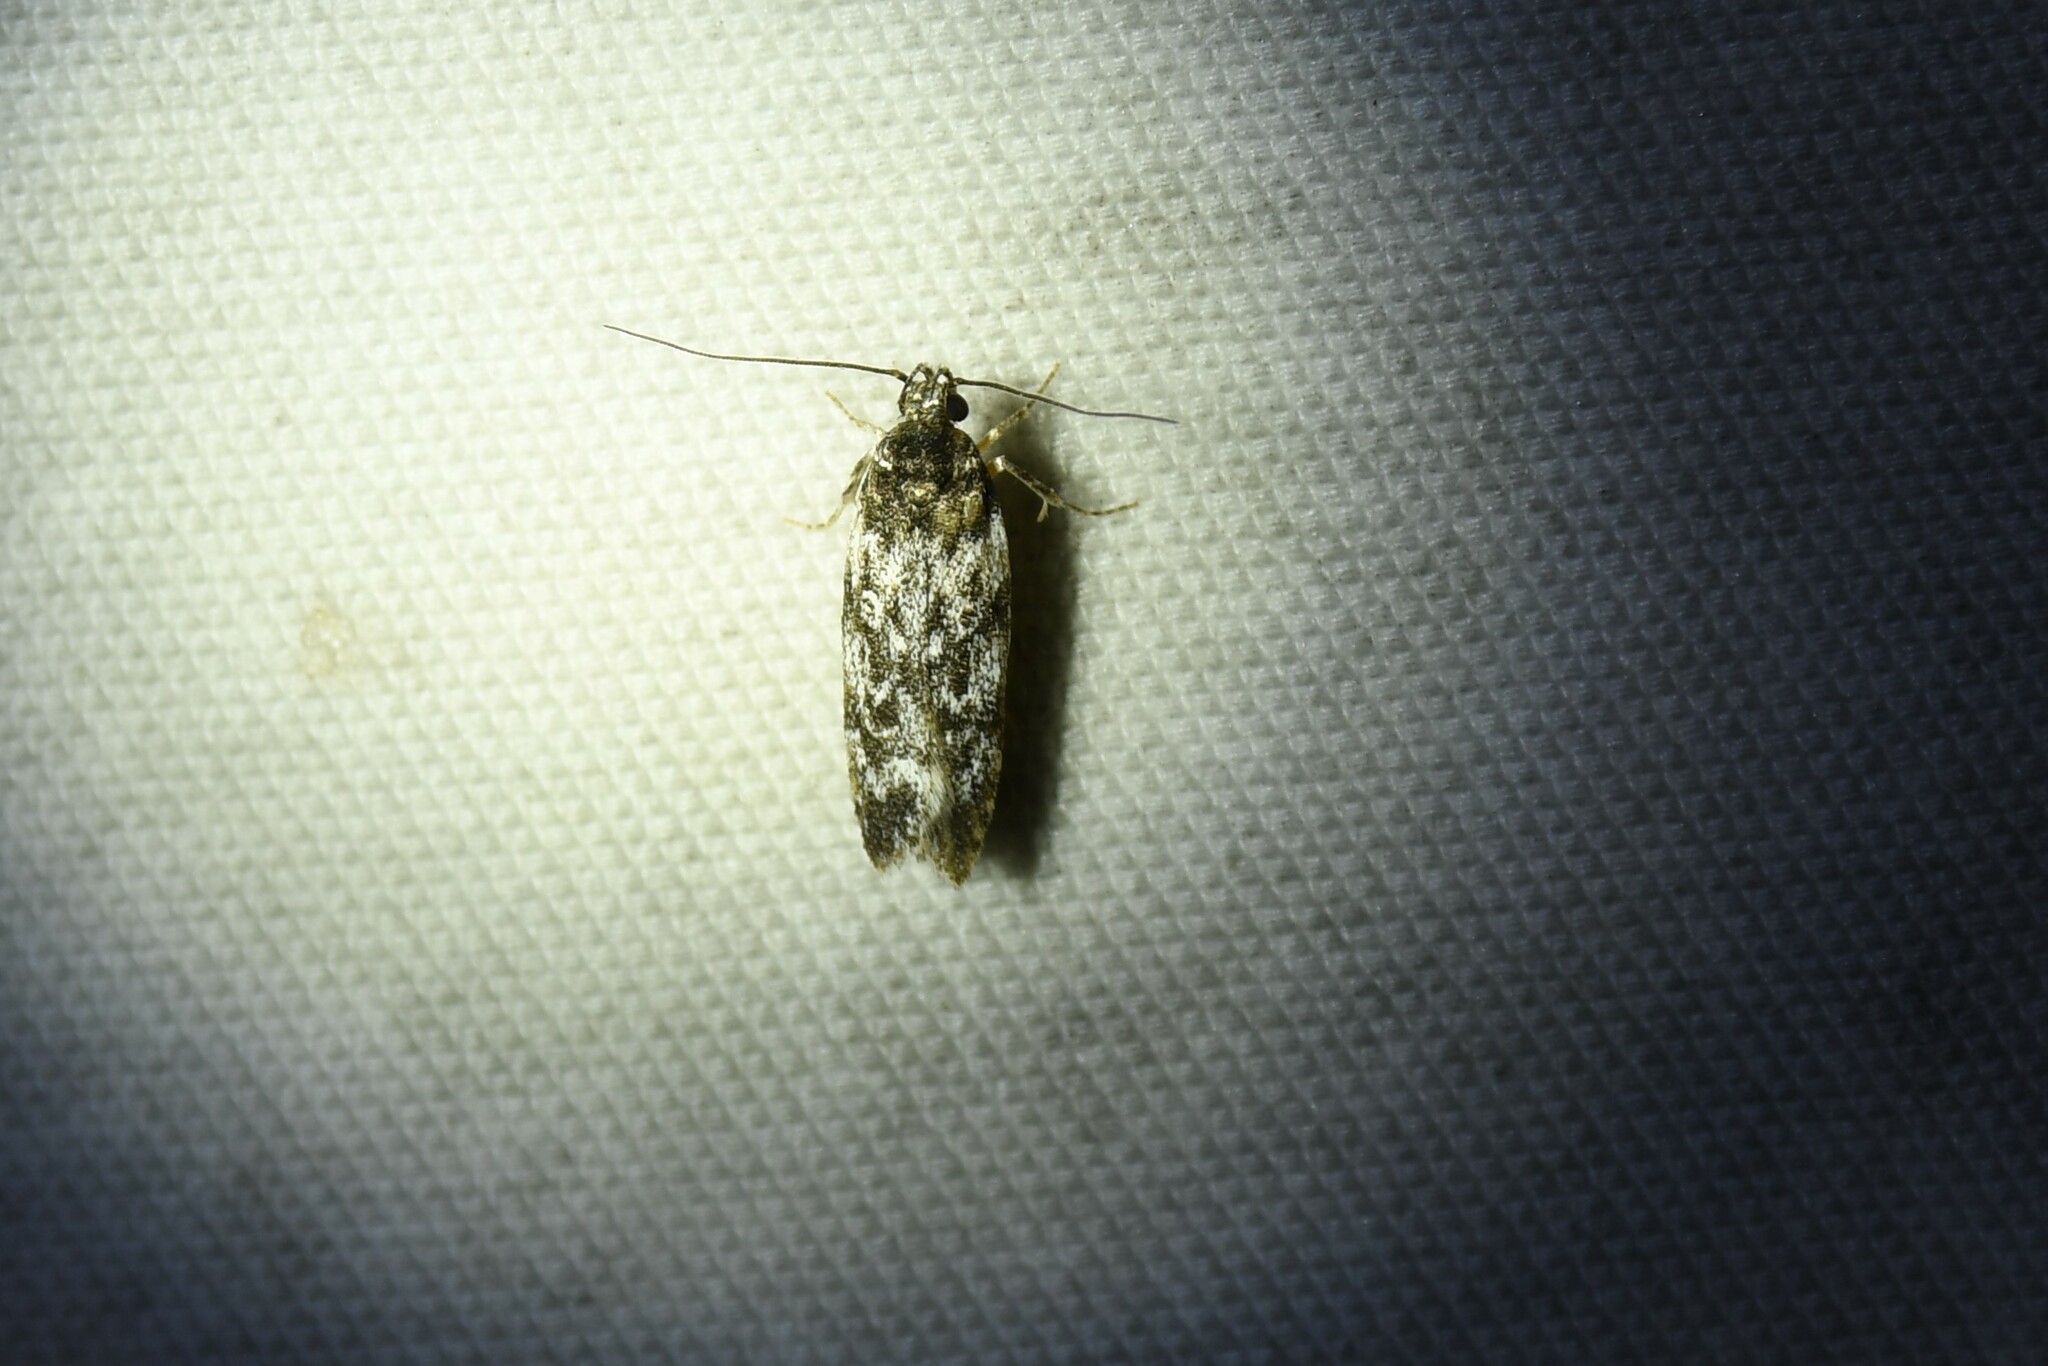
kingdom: Animalia
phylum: Arthropoda
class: Insecta
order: Lepidoptera
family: Gelechiidae
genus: Gelechia
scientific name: Gelechia lynceella
